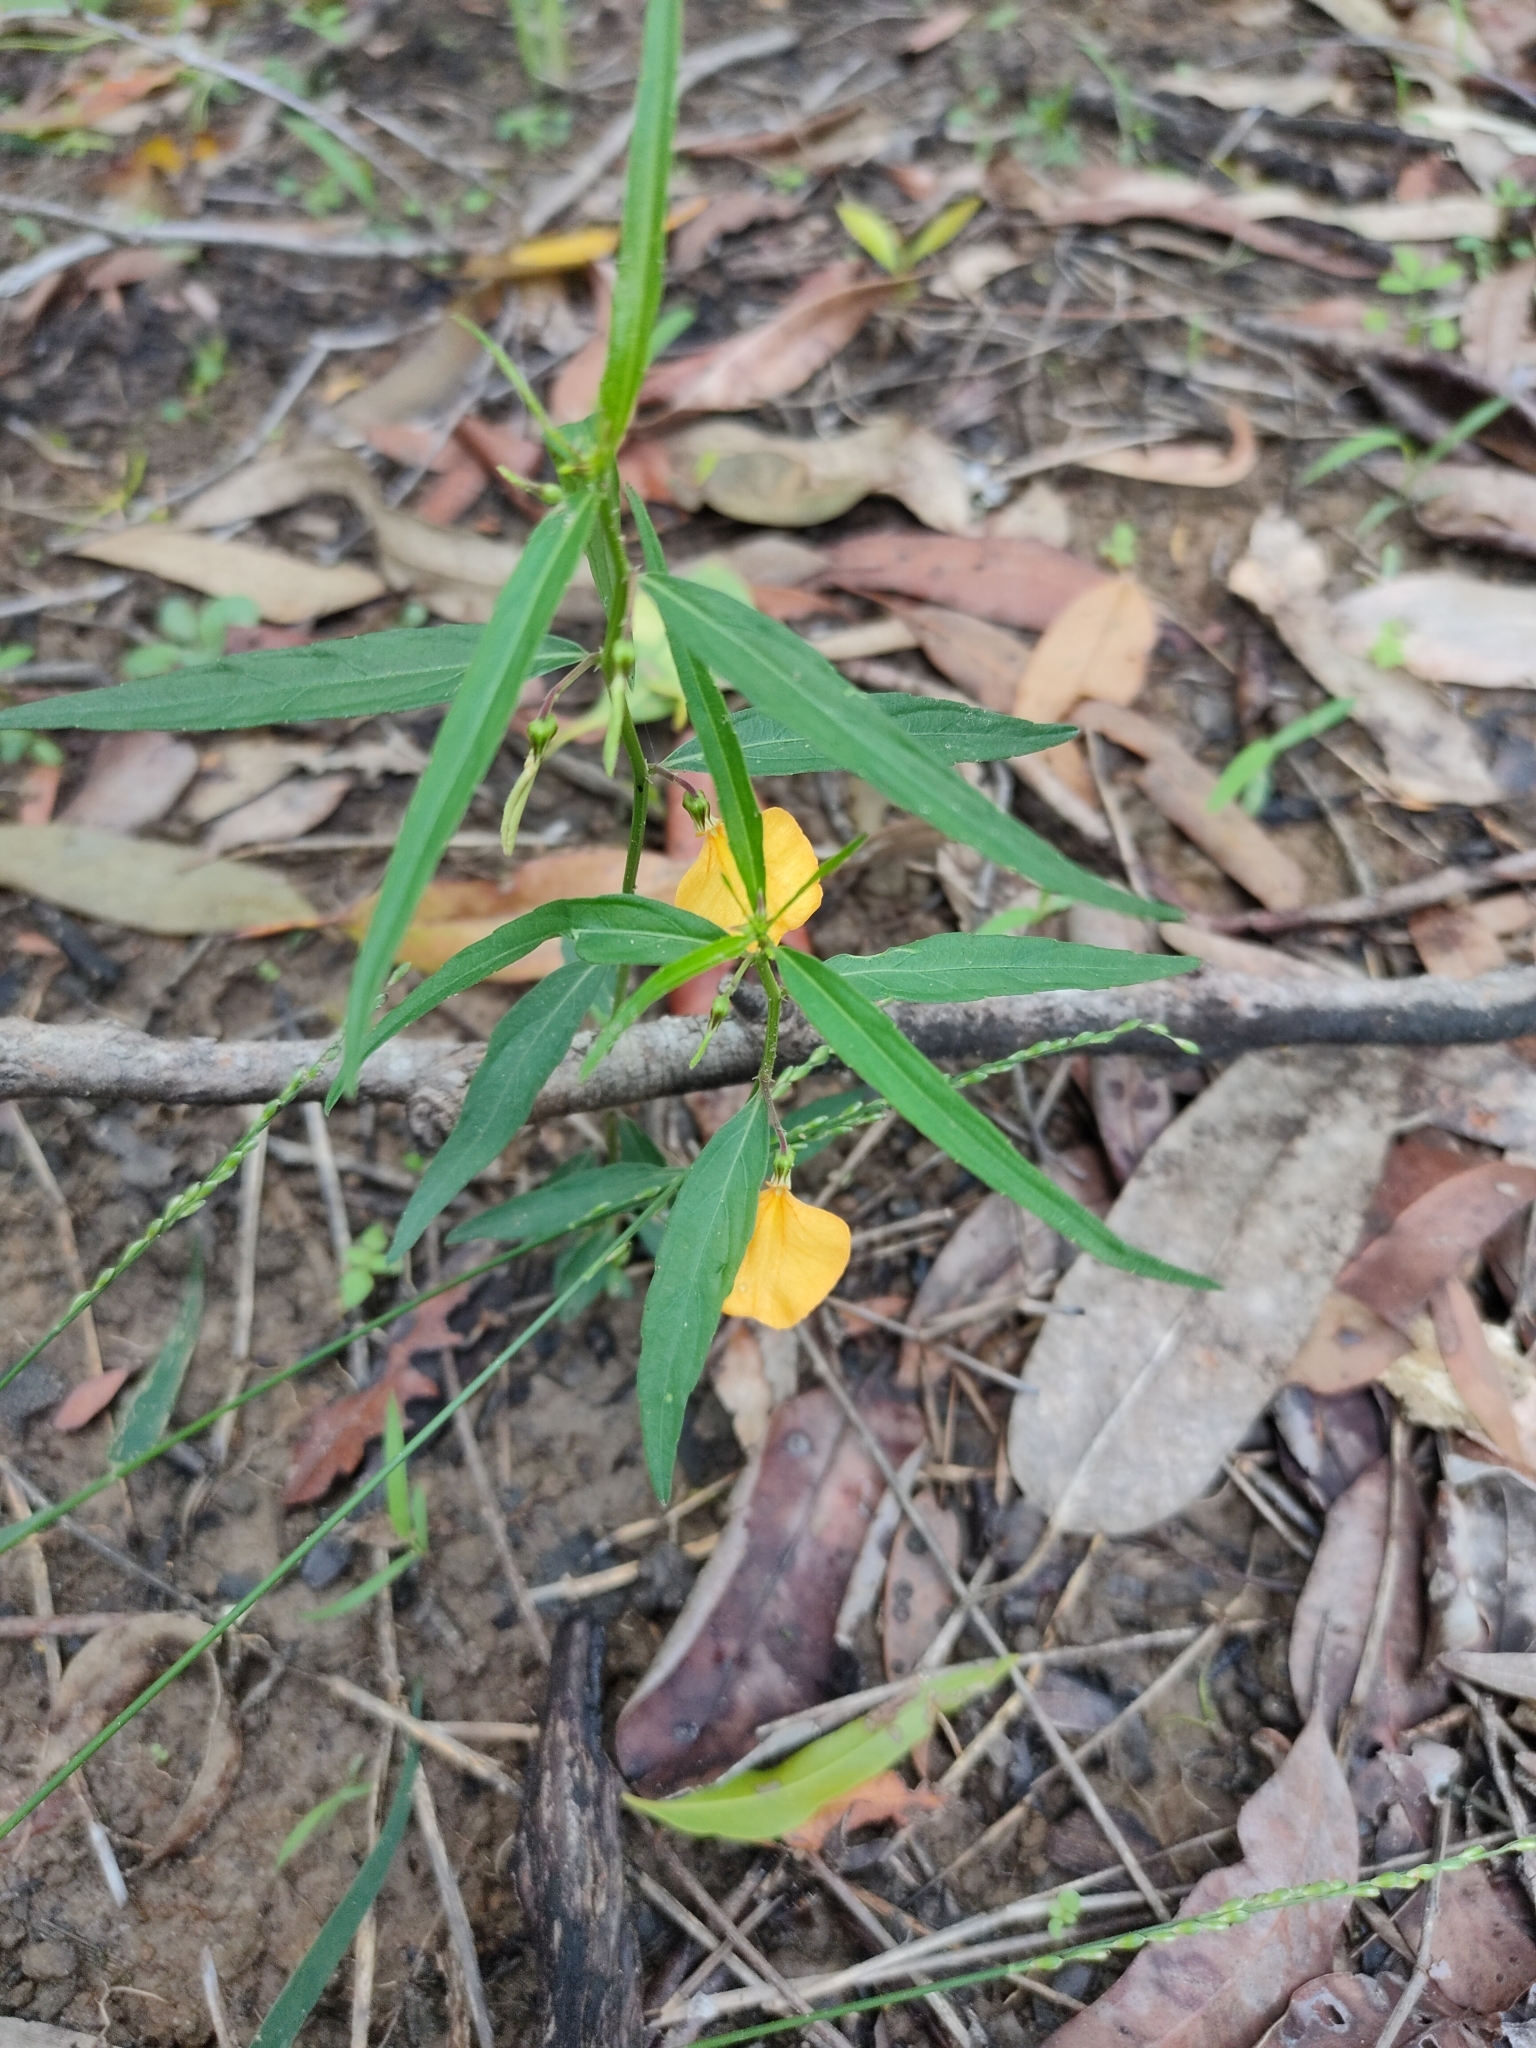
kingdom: Plantae
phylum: Tracheophyta
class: Magnoliopsida
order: Malpighiales
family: Violaceae
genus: Pigea
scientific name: Pigea stellarioides
